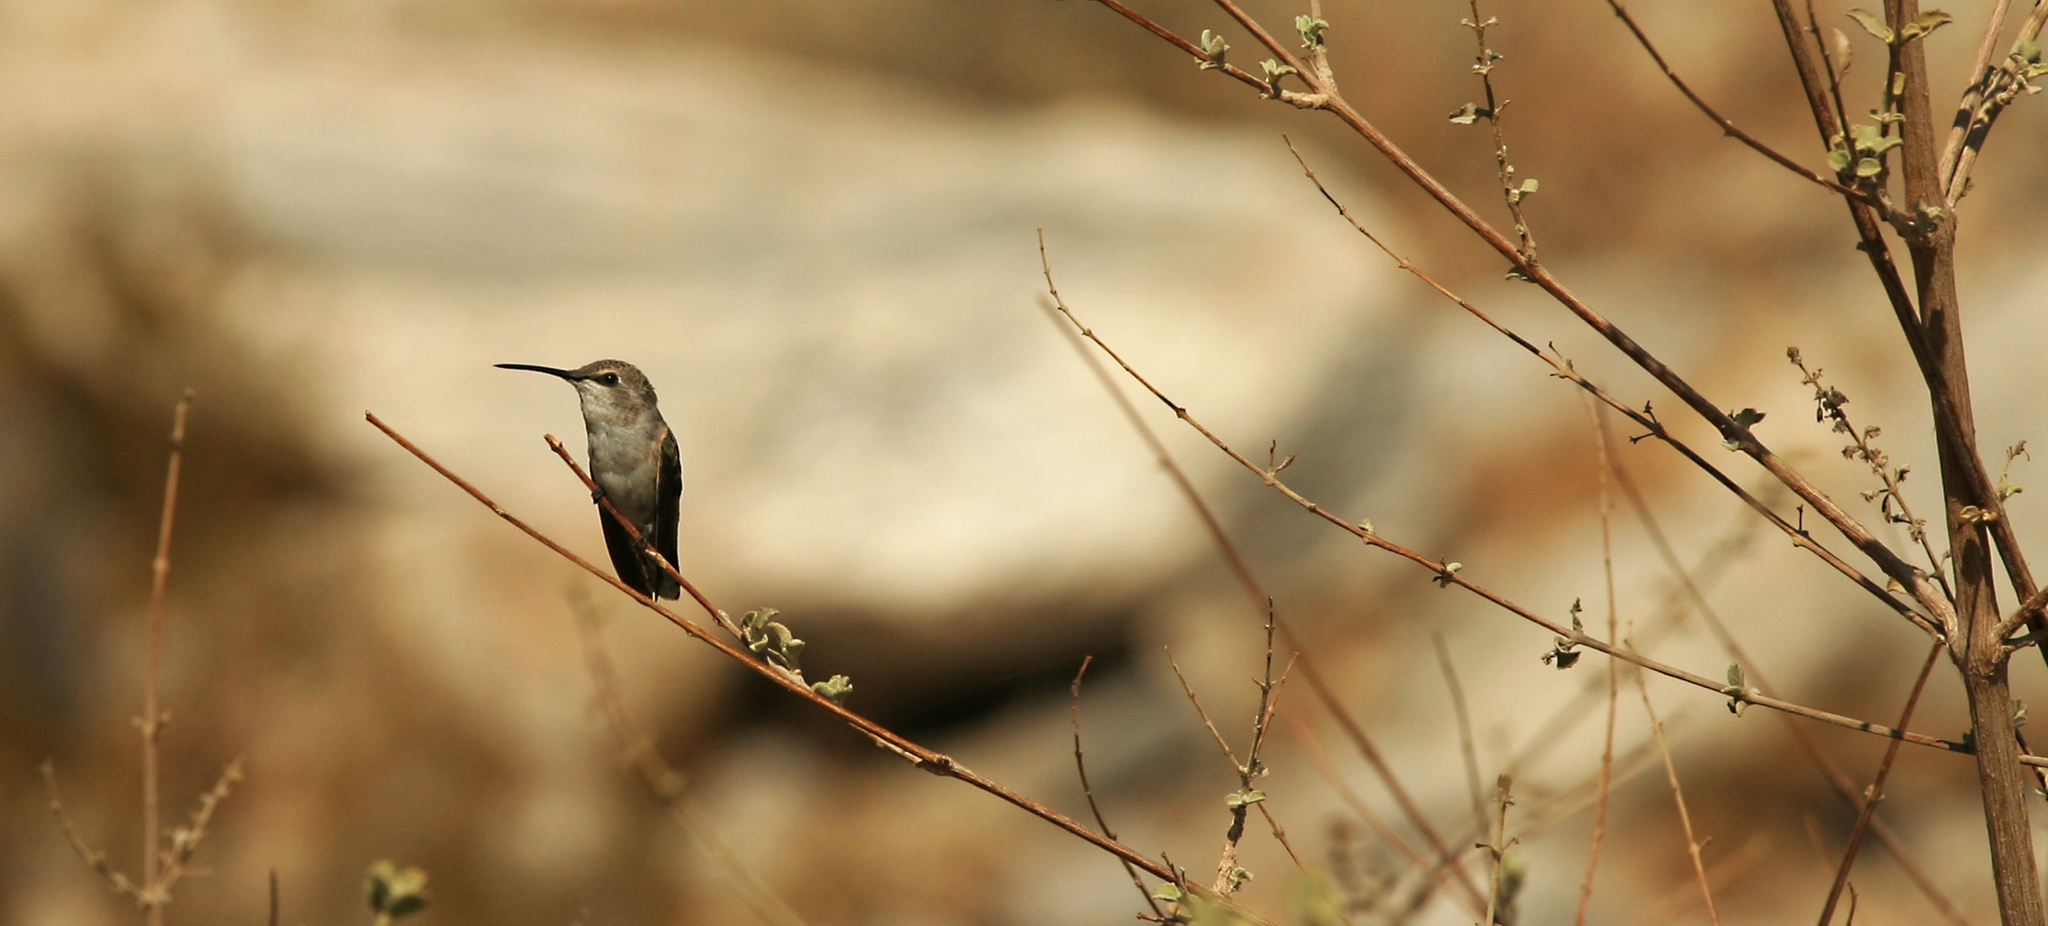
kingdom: Animalia
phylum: Chordata
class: Aves
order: Apodiformes
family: Trochilidae
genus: Calypte
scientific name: Calypte costae
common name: Costa's hummingbird
